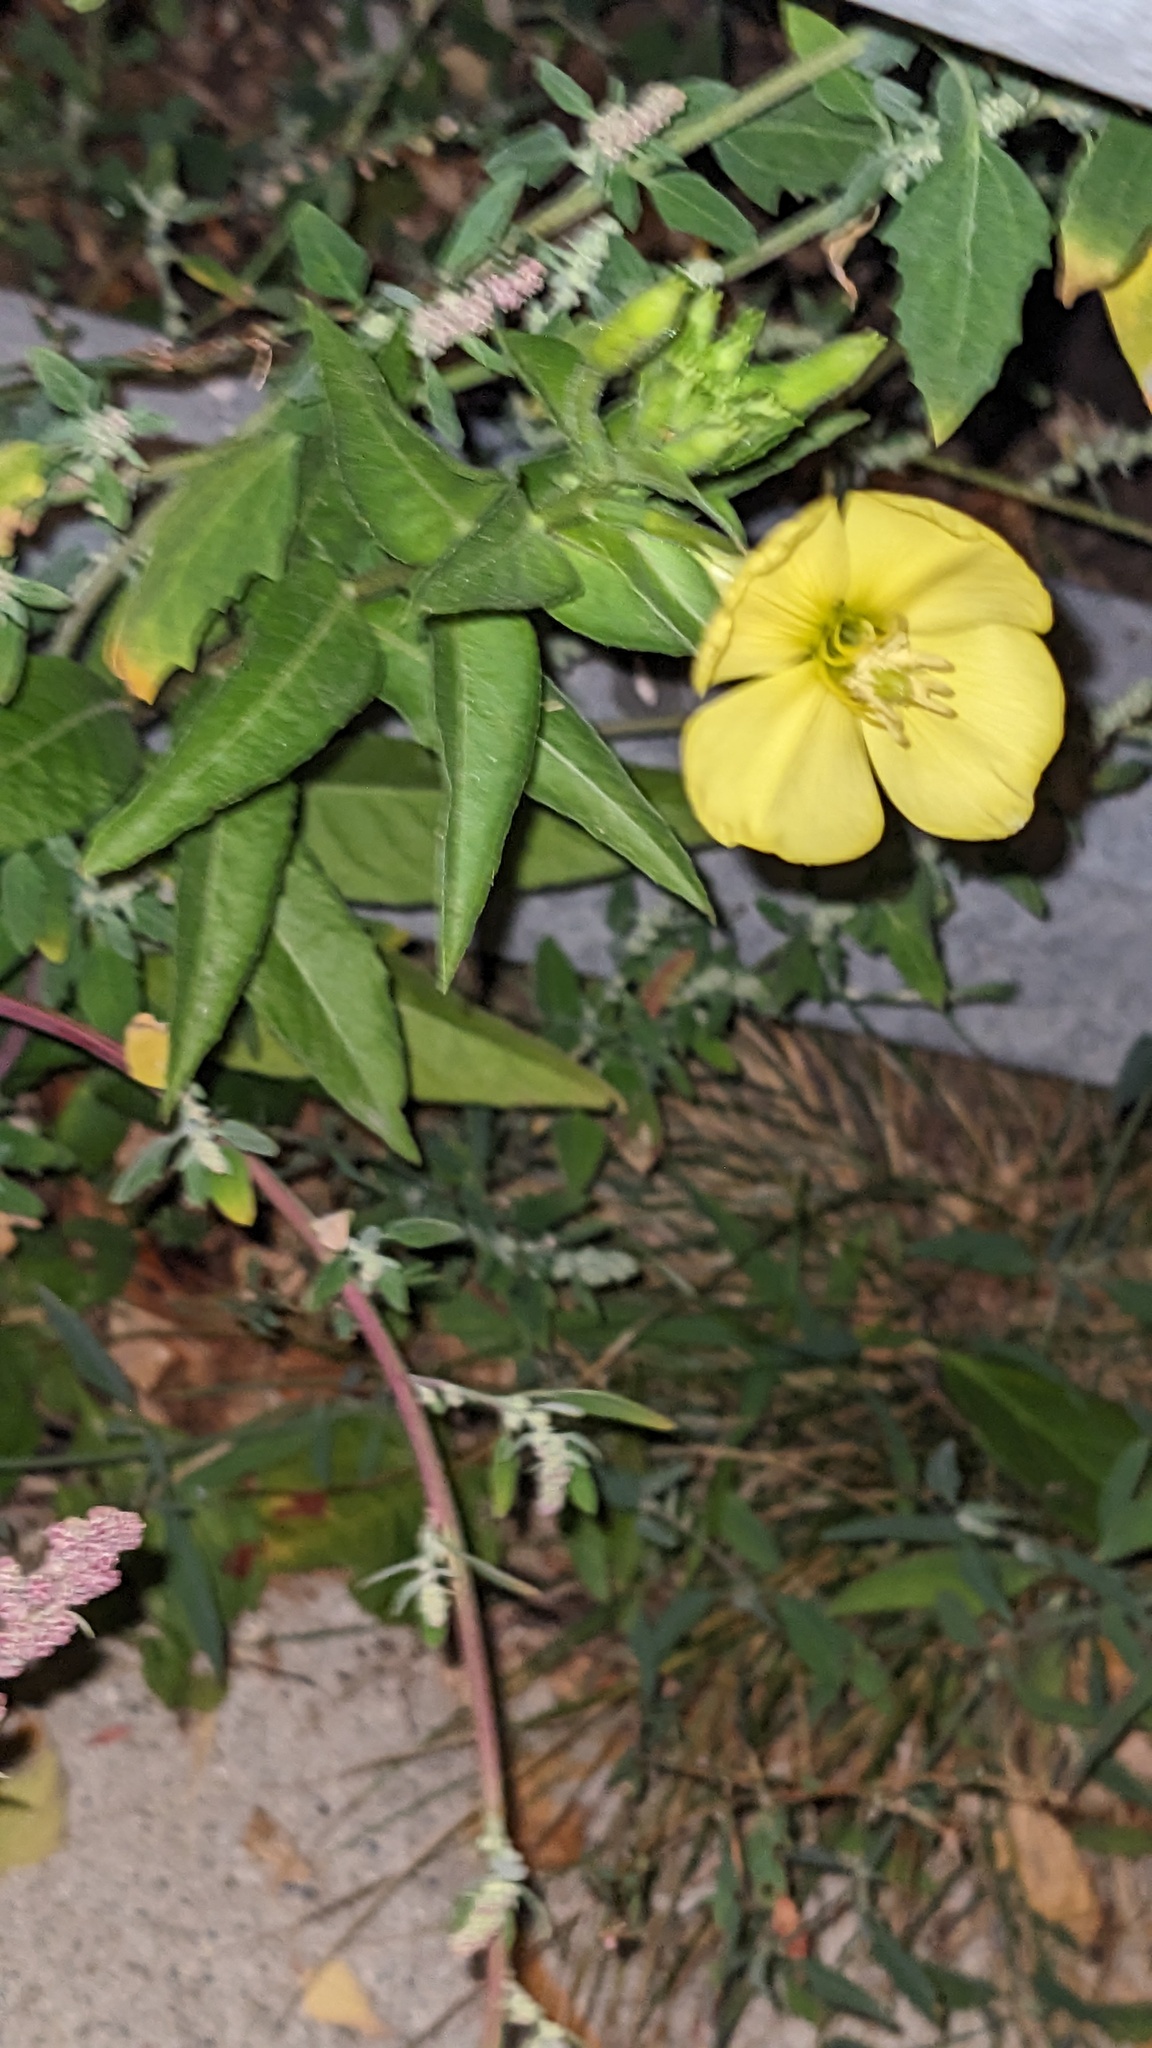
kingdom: Plantae
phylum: Tracheophyta
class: Magnoliopsida
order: Myrtales
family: Onagraceae
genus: Oenothera
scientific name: Oenothera biennis
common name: Common evening-primrose
